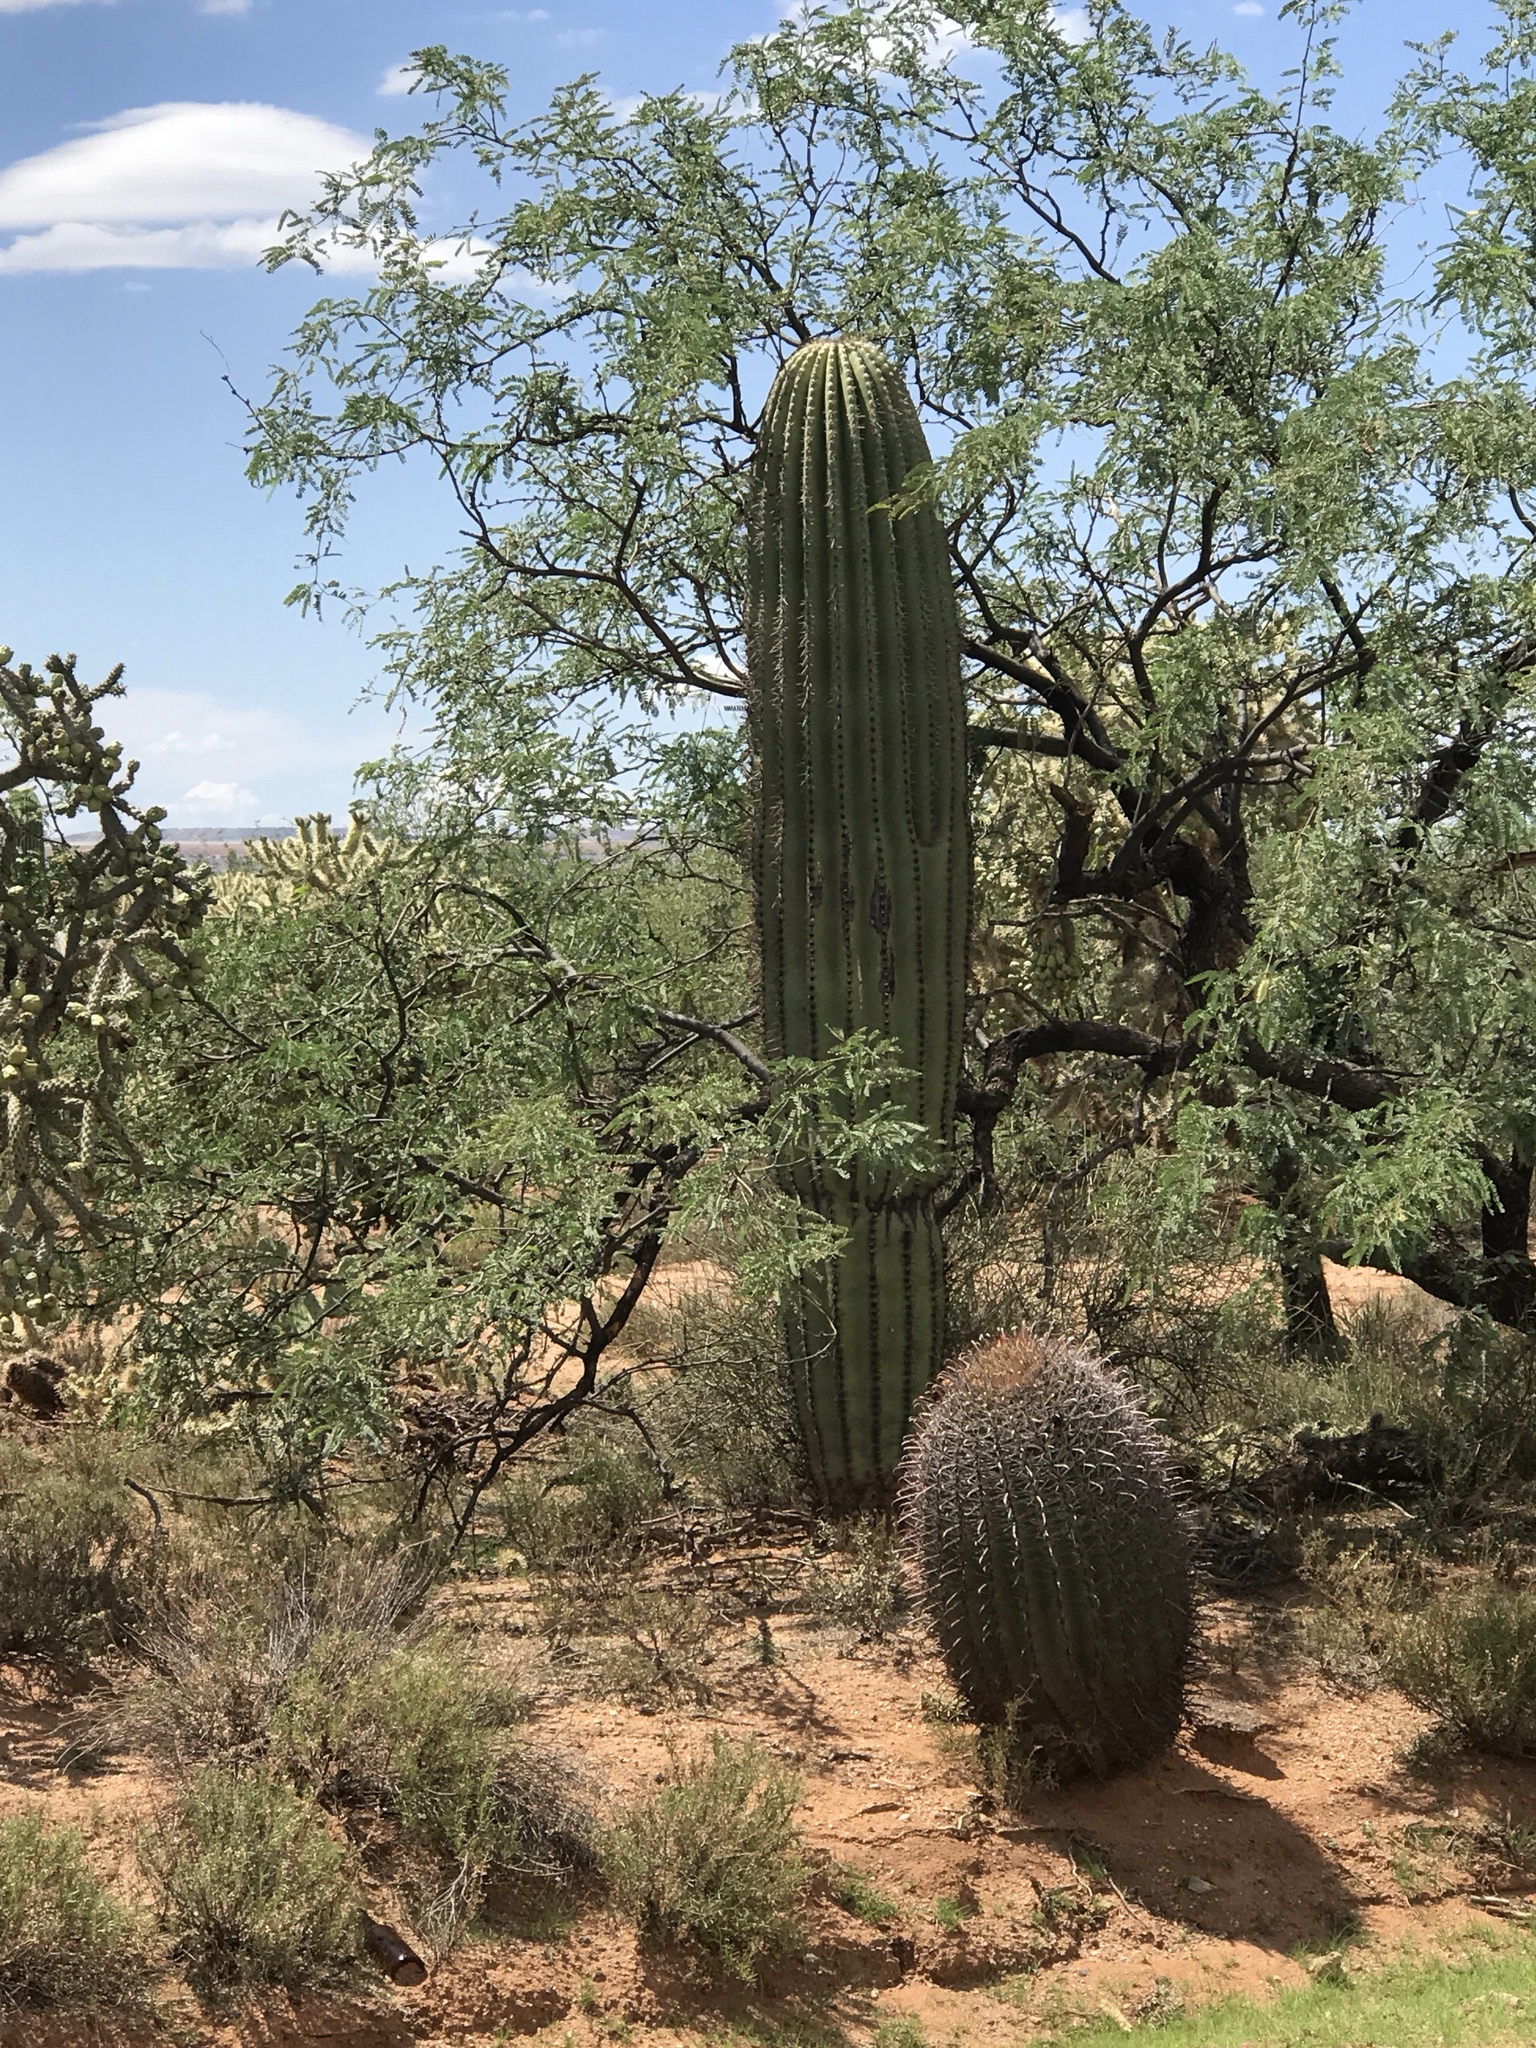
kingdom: Plantae
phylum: Tracheophyta
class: Magnoliopsida
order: Caryophyllales
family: Cactaceae
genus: Carnegiea
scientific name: Carnegiea gigantea
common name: Saguaro
